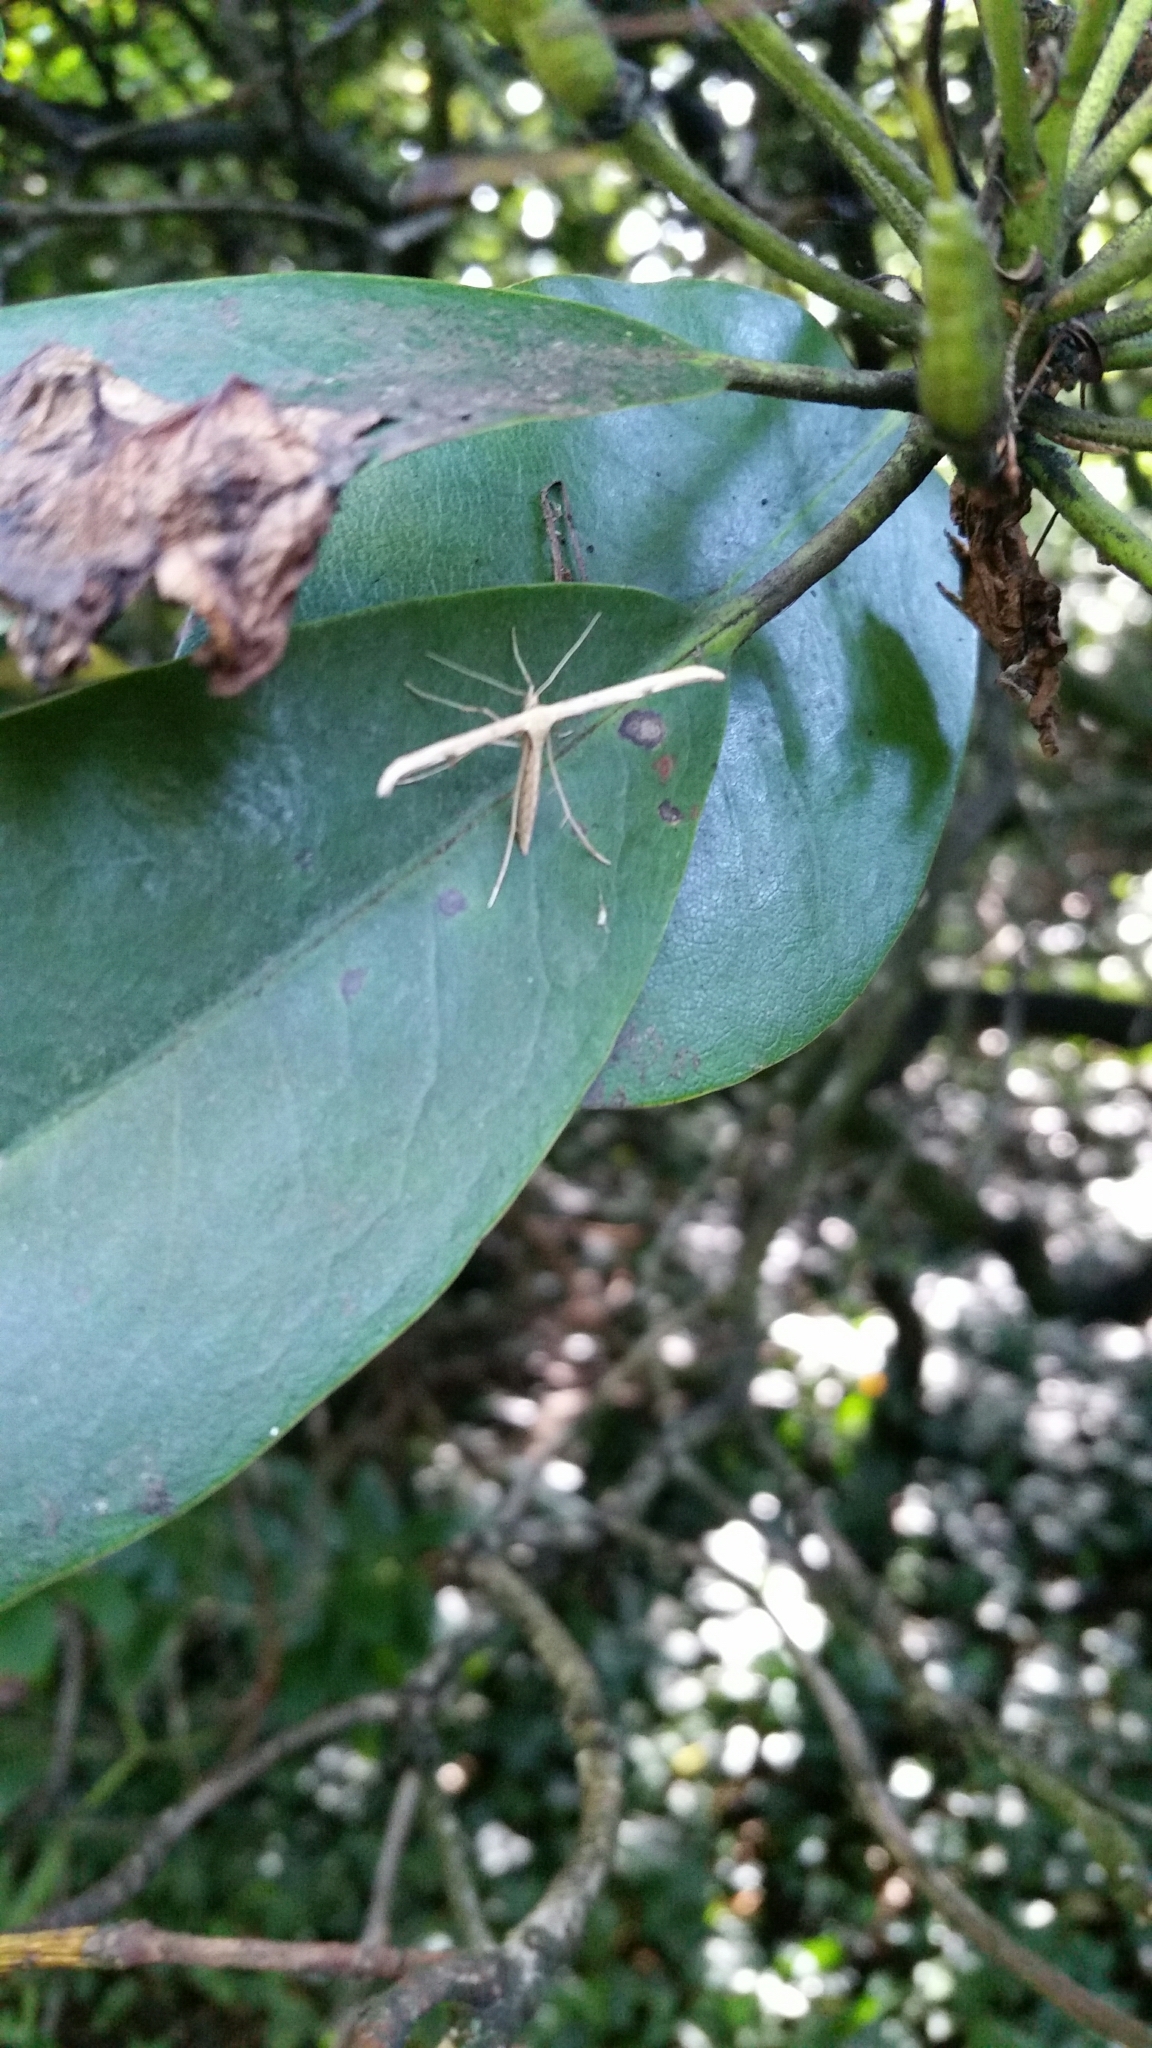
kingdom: Animalia
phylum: Arthropoda
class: Insecta
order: Lepidoptera
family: Pterophoridae
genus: Emmelina
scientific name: Emmelina monodactyla
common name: Common plume
